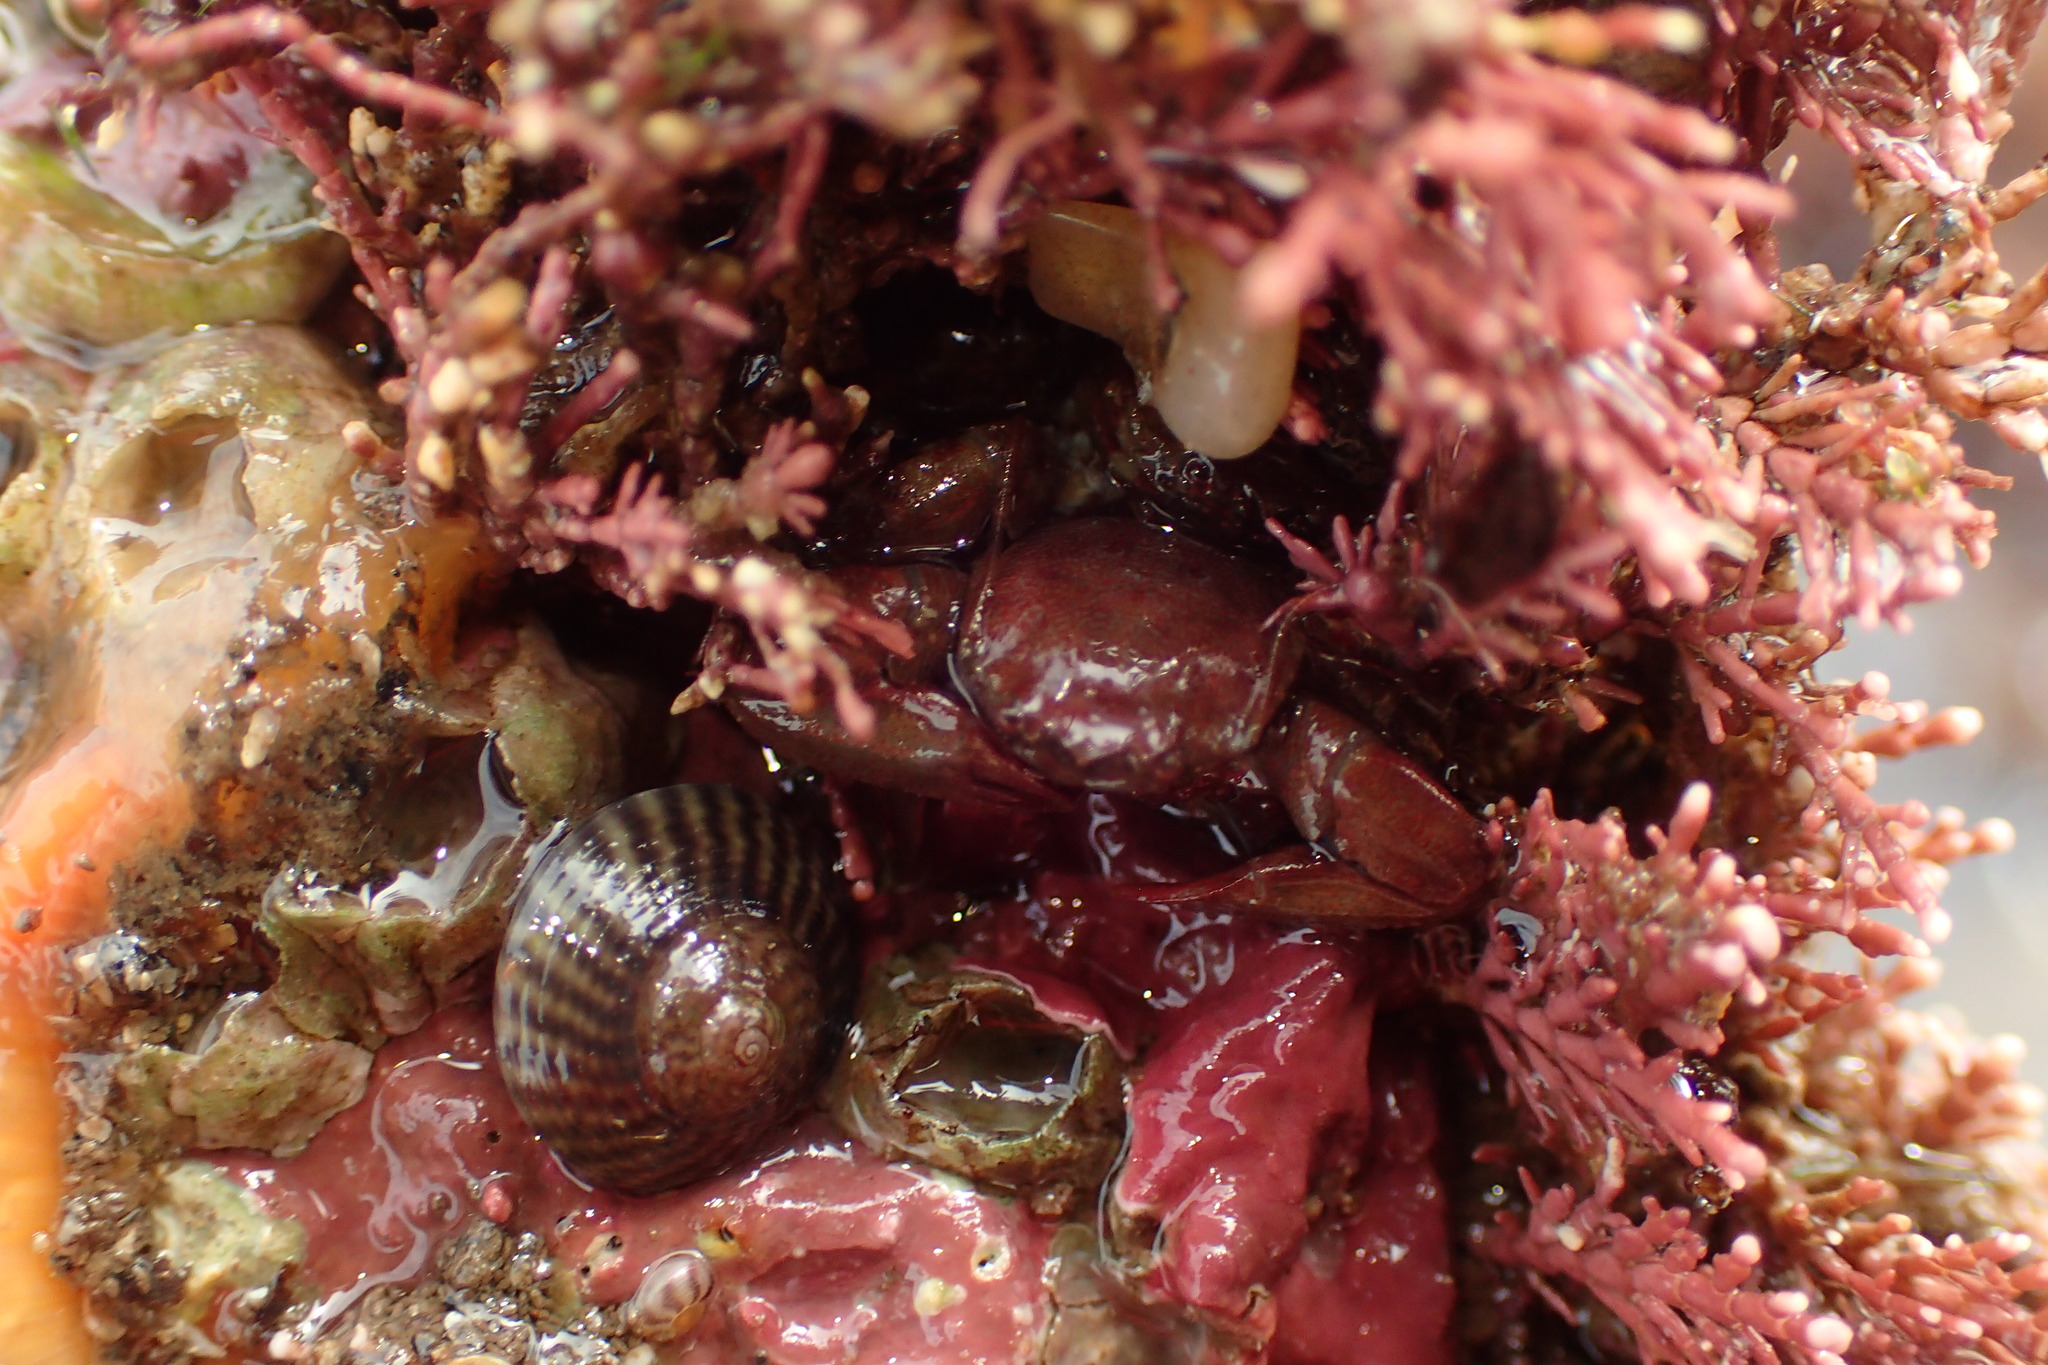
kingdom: Animalia
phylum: Arthropoda
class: Malacostraca
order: Decapoda
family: Porcellanidae
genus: Pisidia
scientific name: Pisidia longicornis
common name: Long clawed porcelain crab
